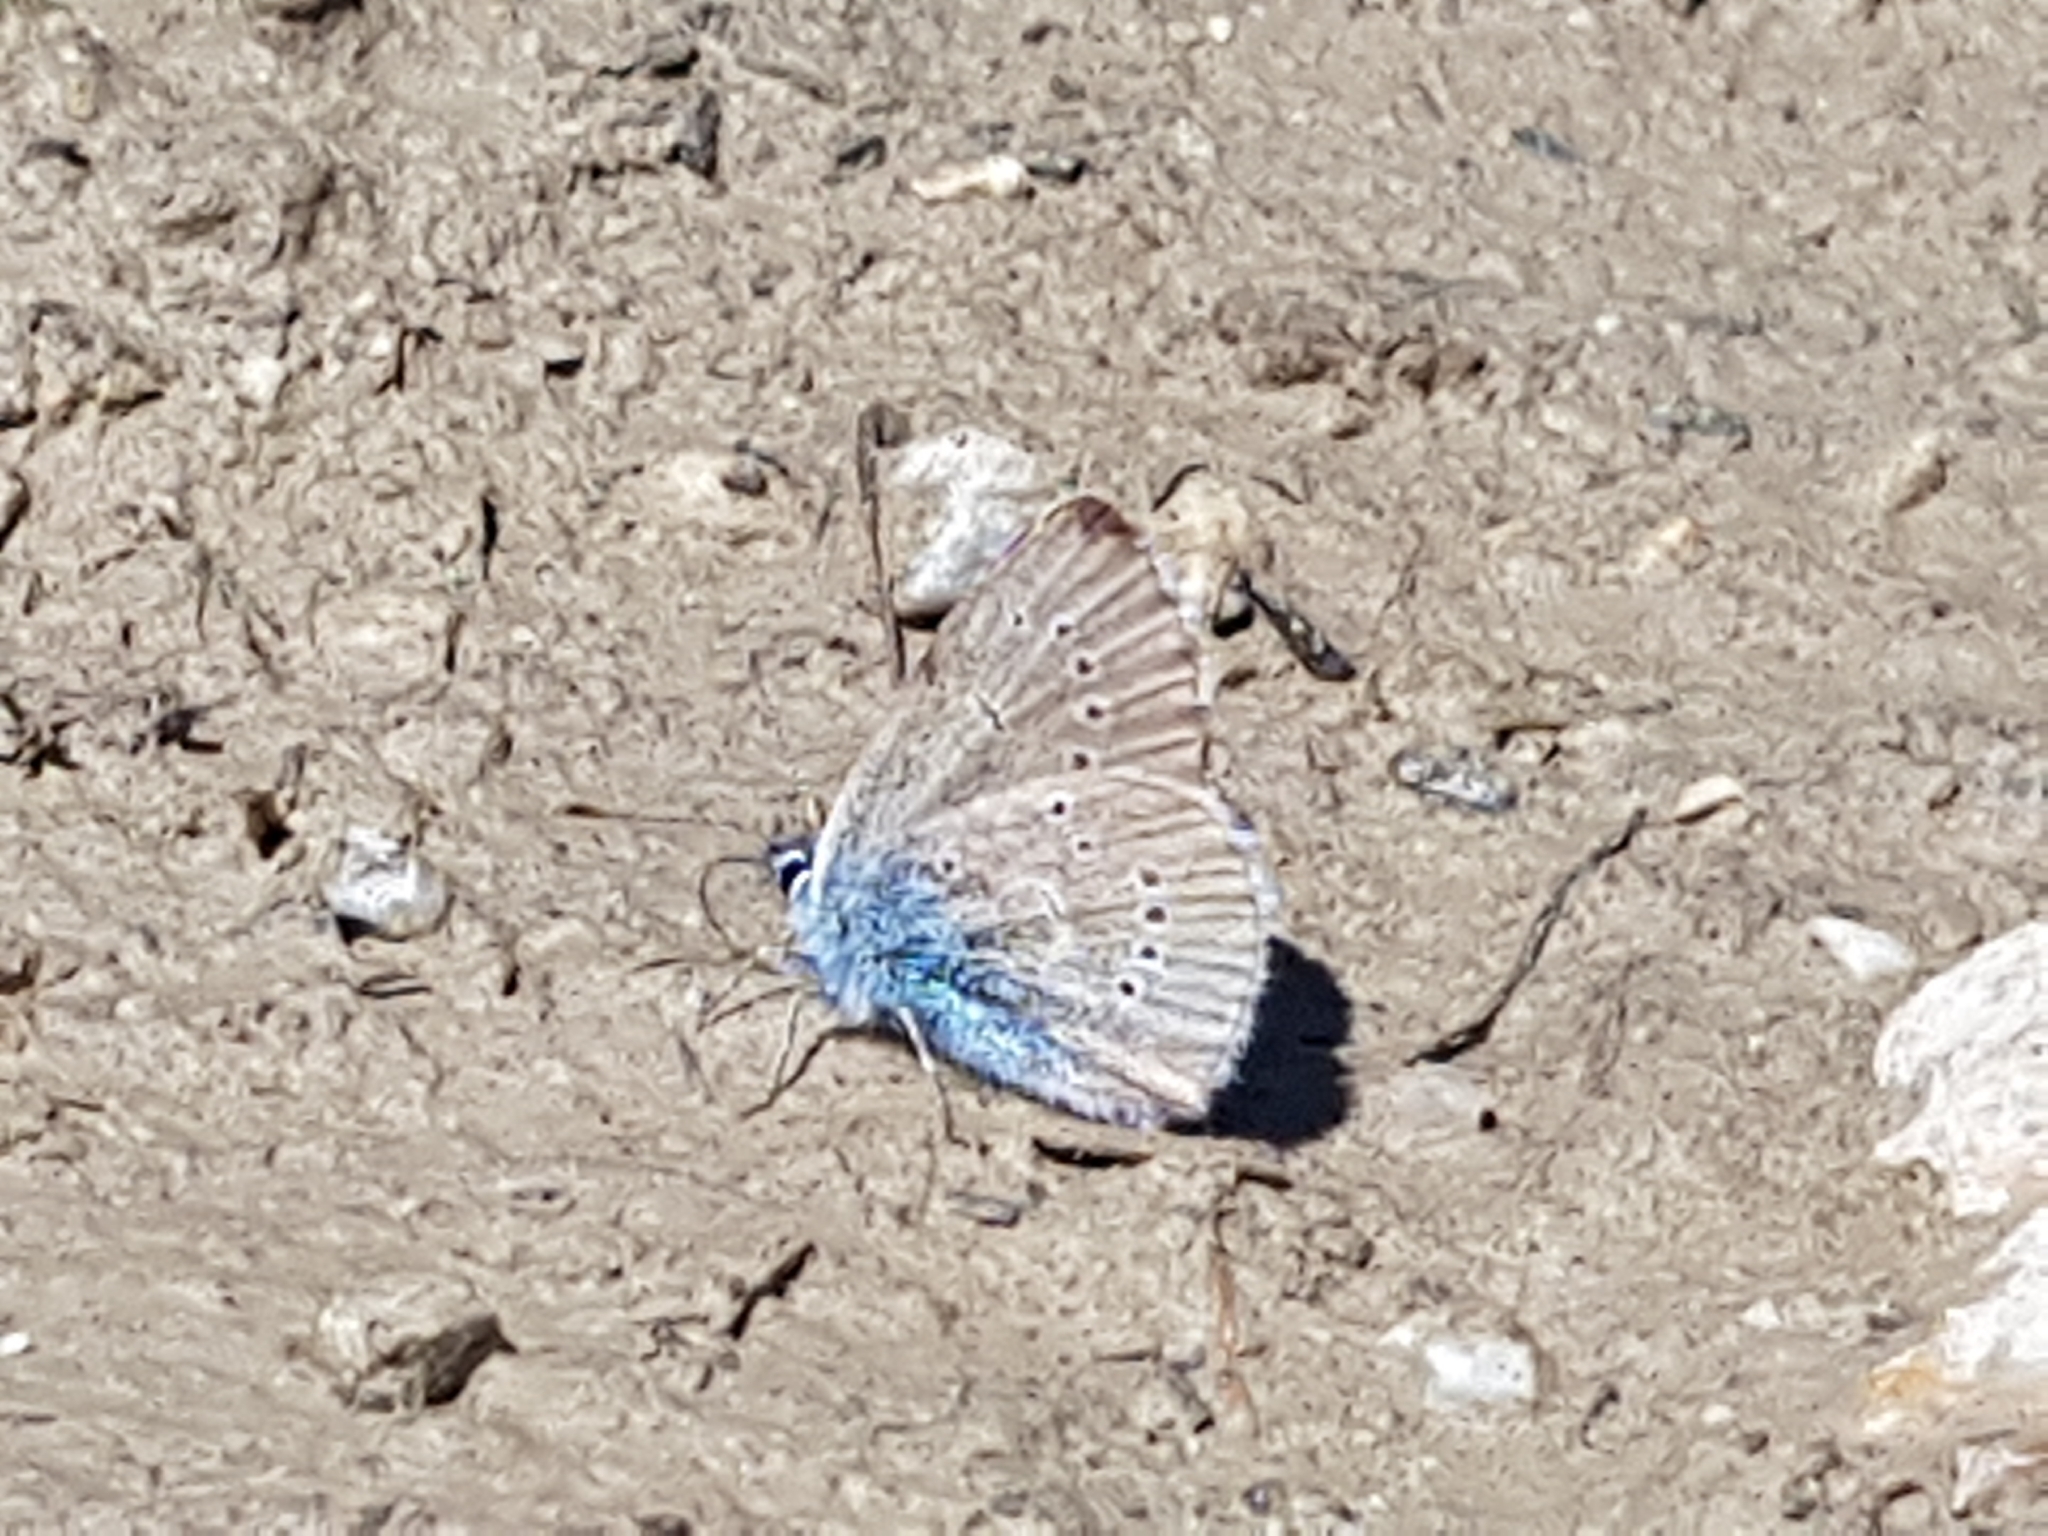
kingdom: Animalia
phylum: Arthropoda
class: Insecta
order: Lepidoptera
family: Lycaenidae
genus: Cyaniris
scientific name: Cyaniris semiargus
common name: Mazarine blue
